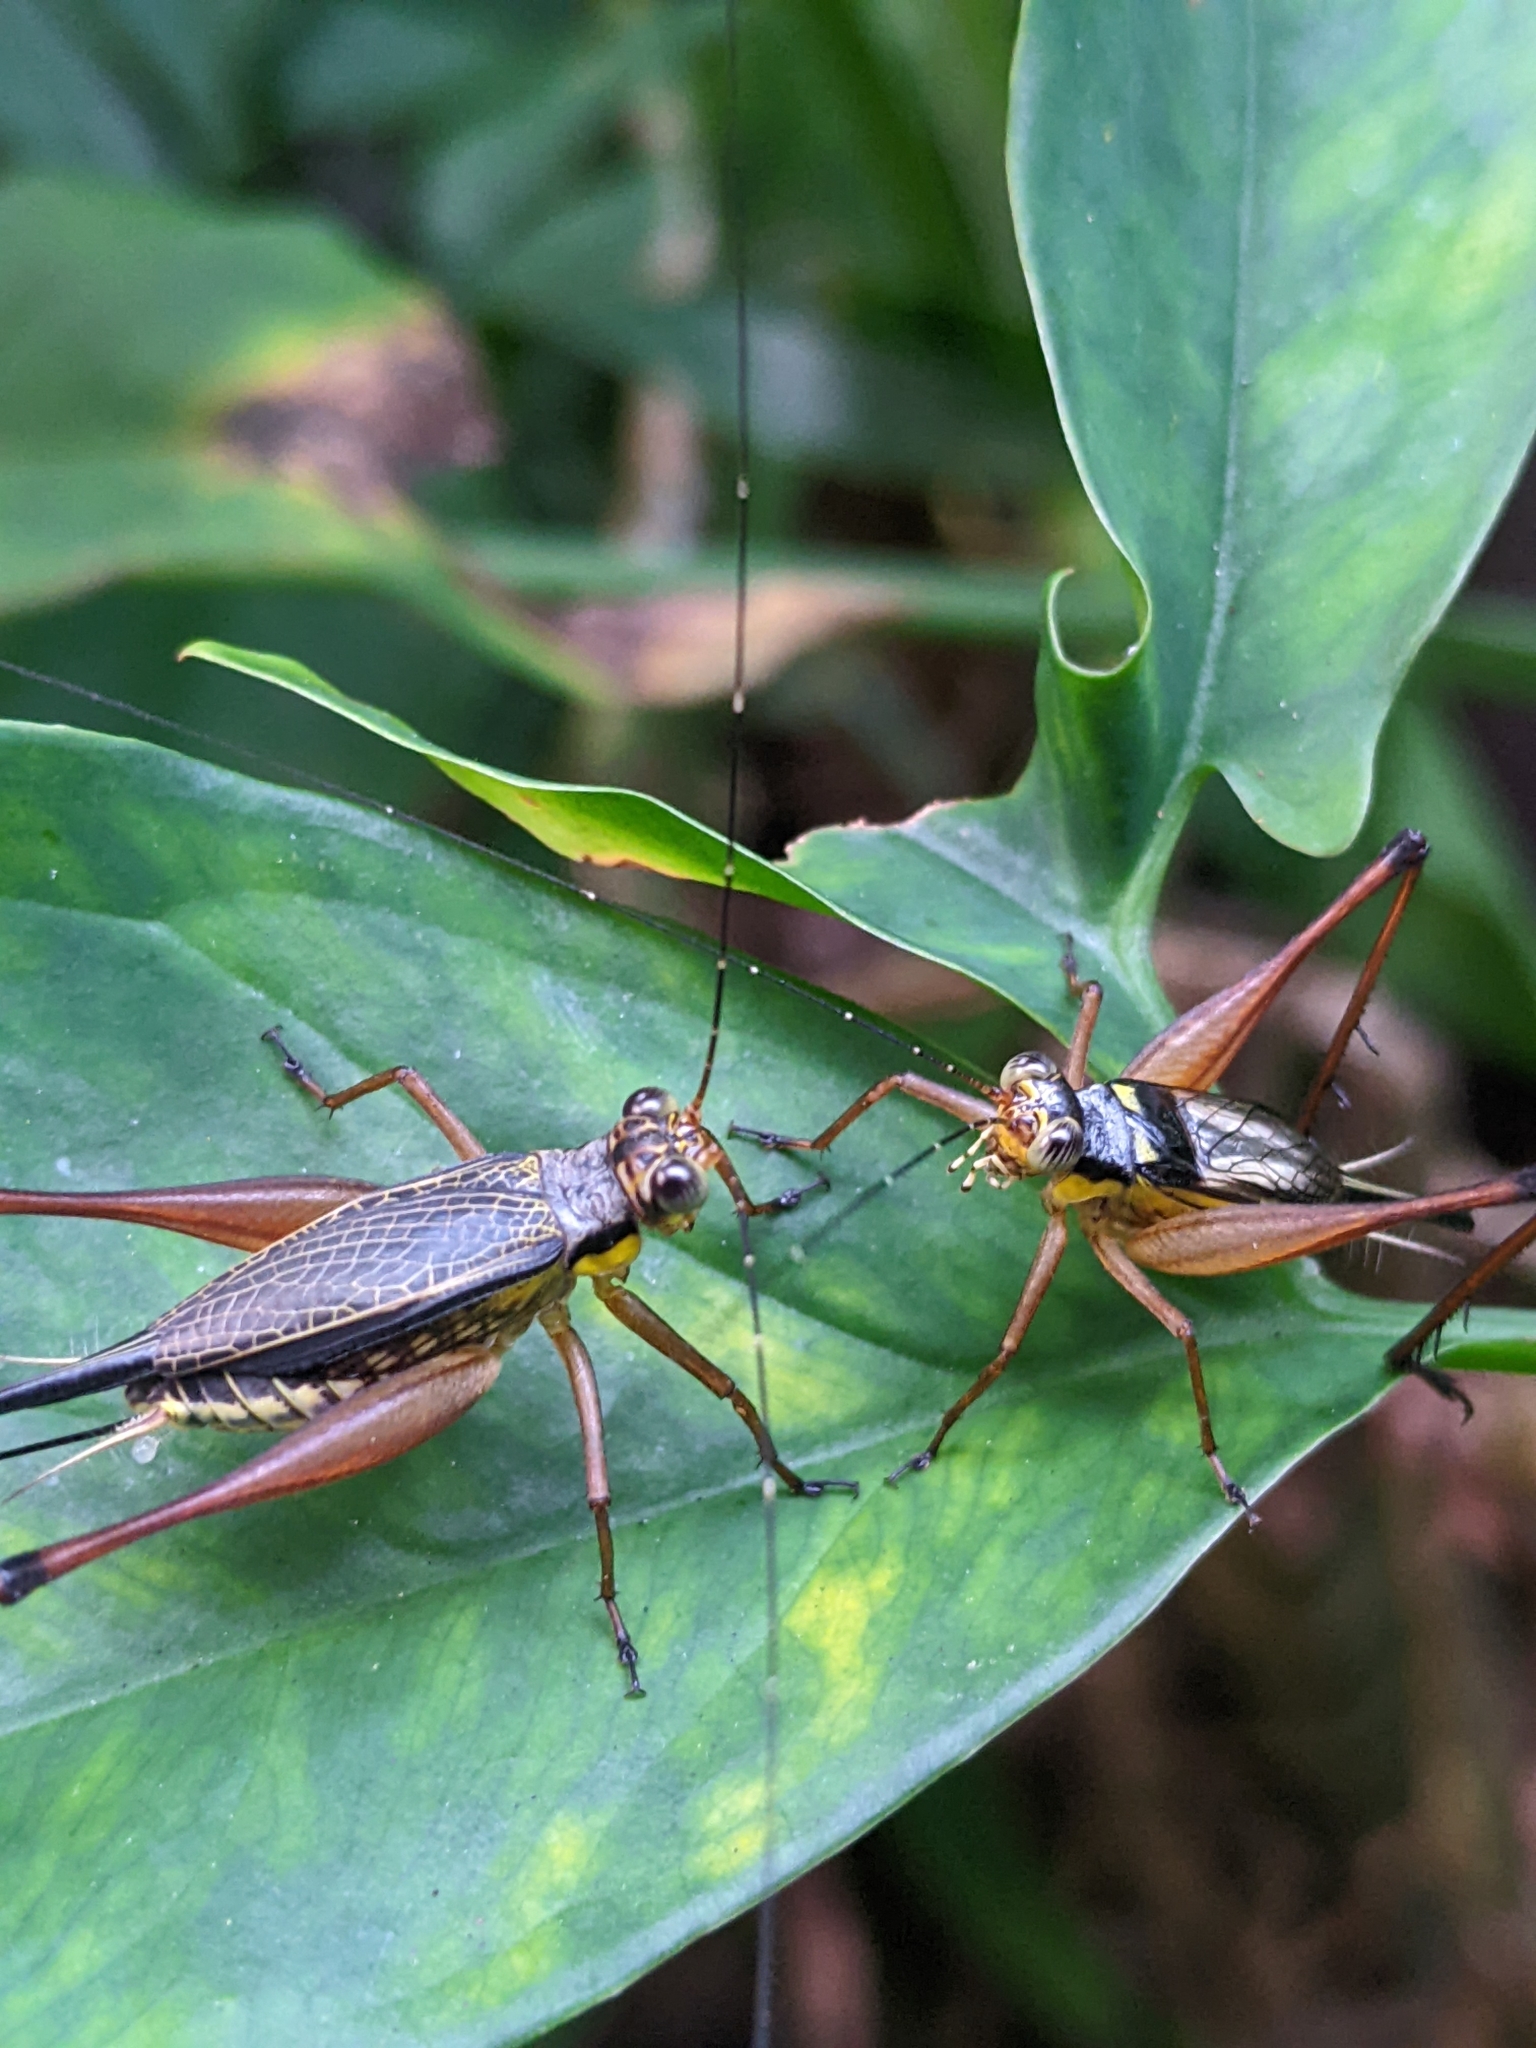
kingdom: Animalia
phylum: Arthropoda
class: Insecta
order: Orthoptera
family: Gryllidae
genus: Nisitrus
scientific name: Nisitrus malaya
